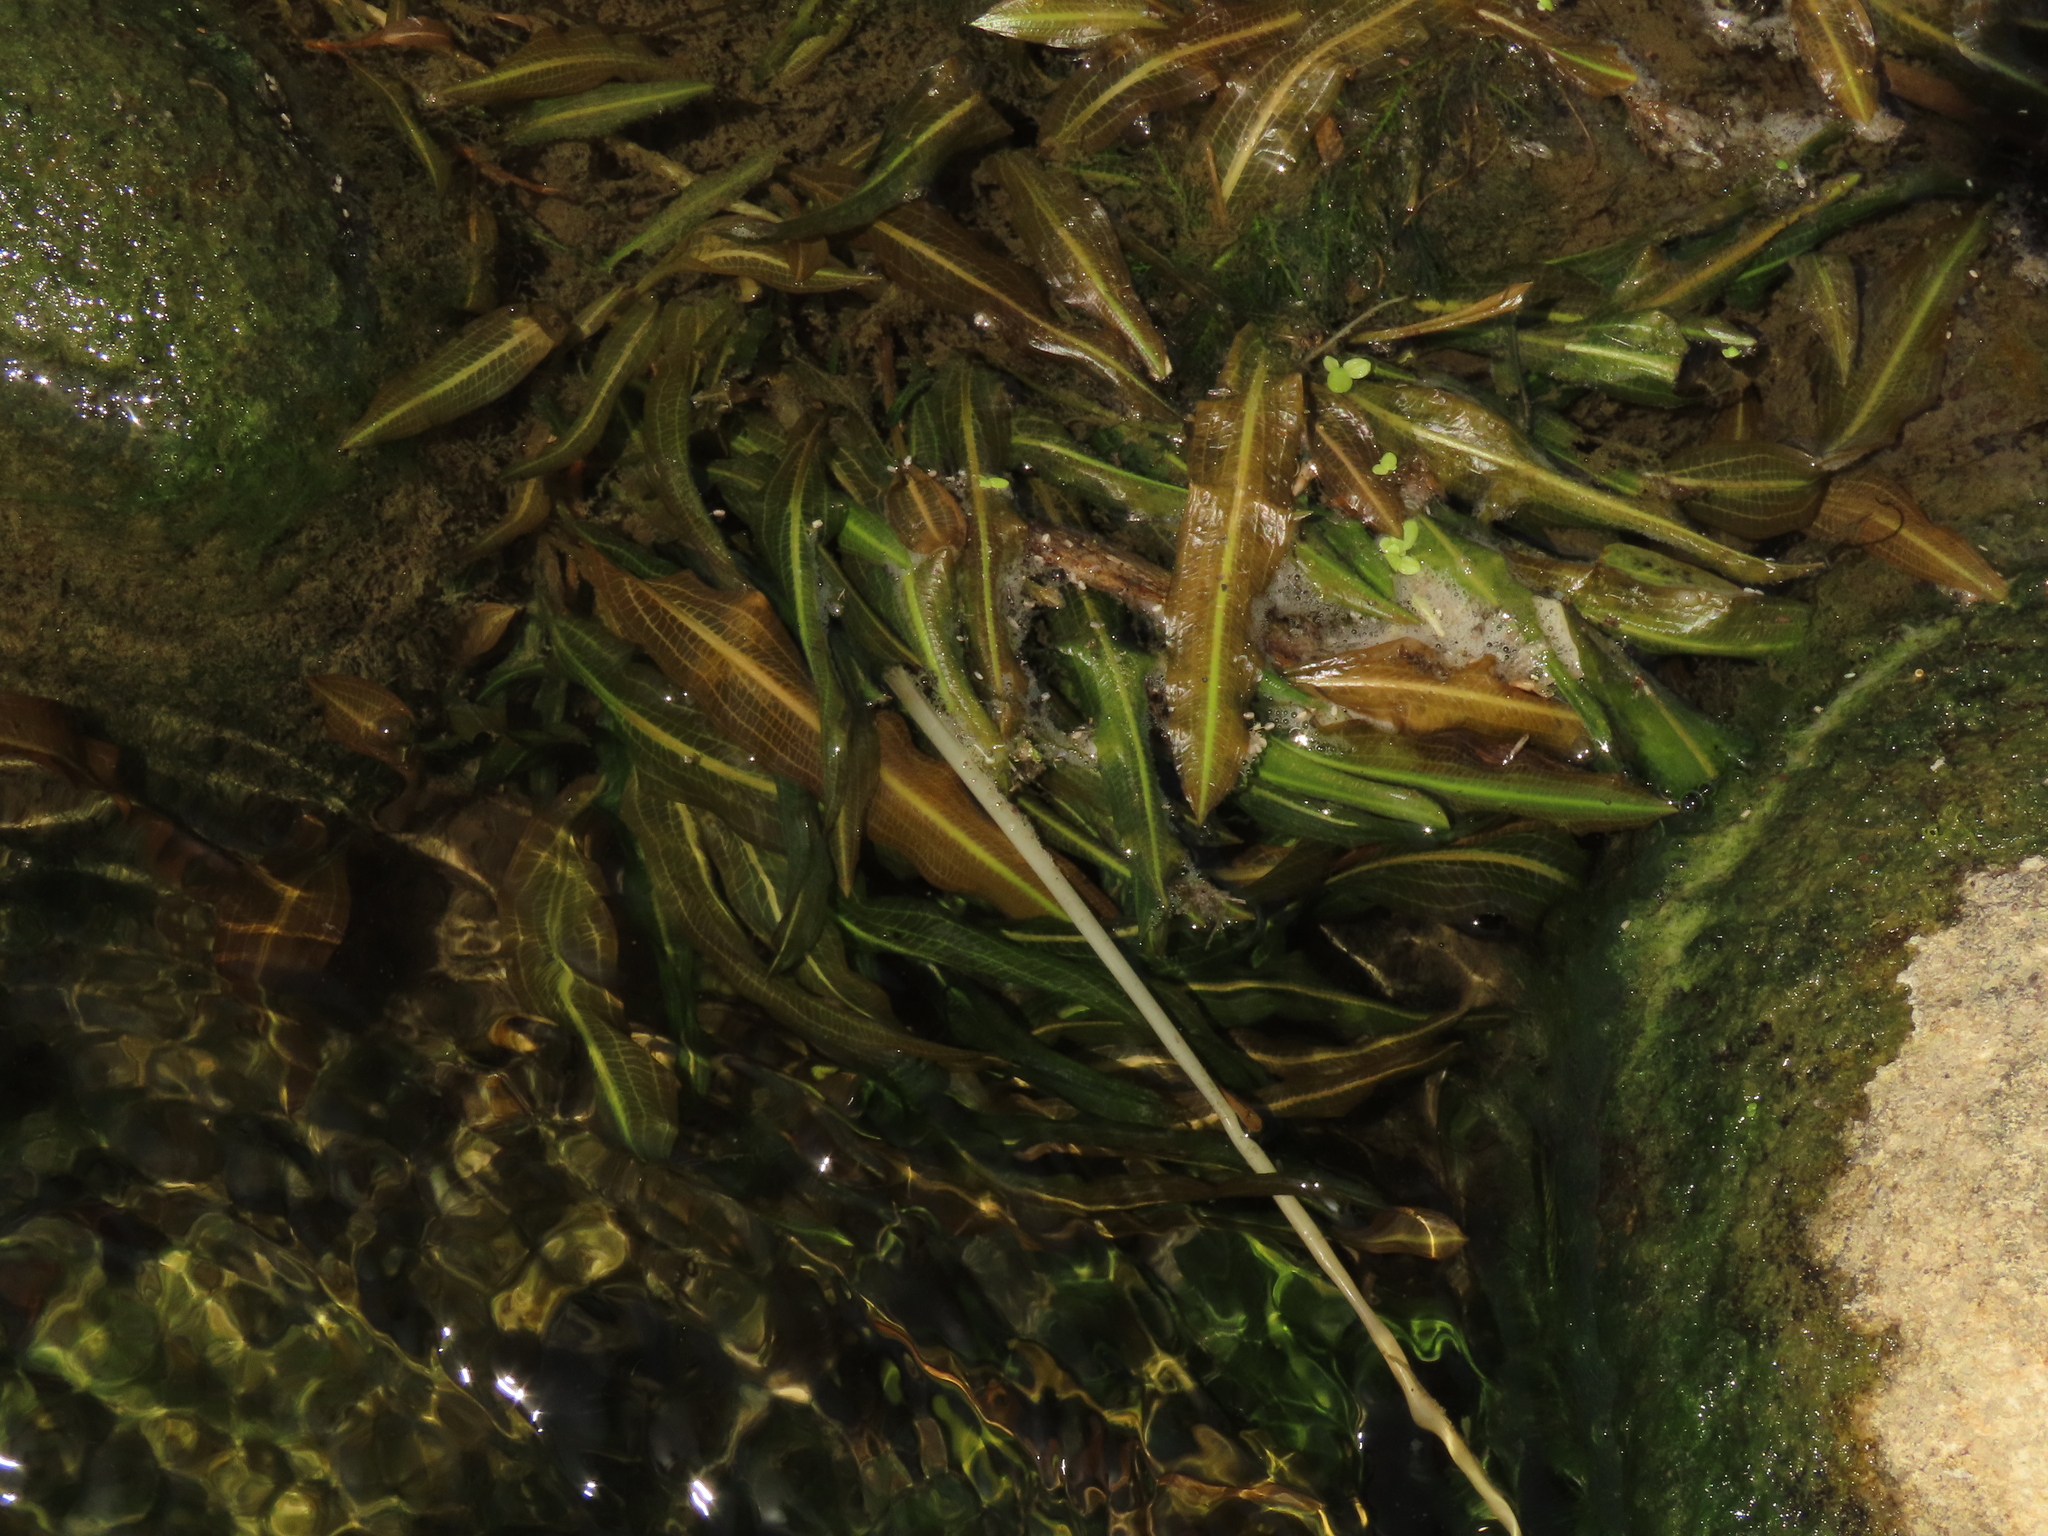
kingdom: Plantae
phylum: Tracheophyta
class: Liliopsida
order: Alismatales
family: Potamogetonaceae
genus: Potamogeton
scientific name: Potamogeton wrightii
